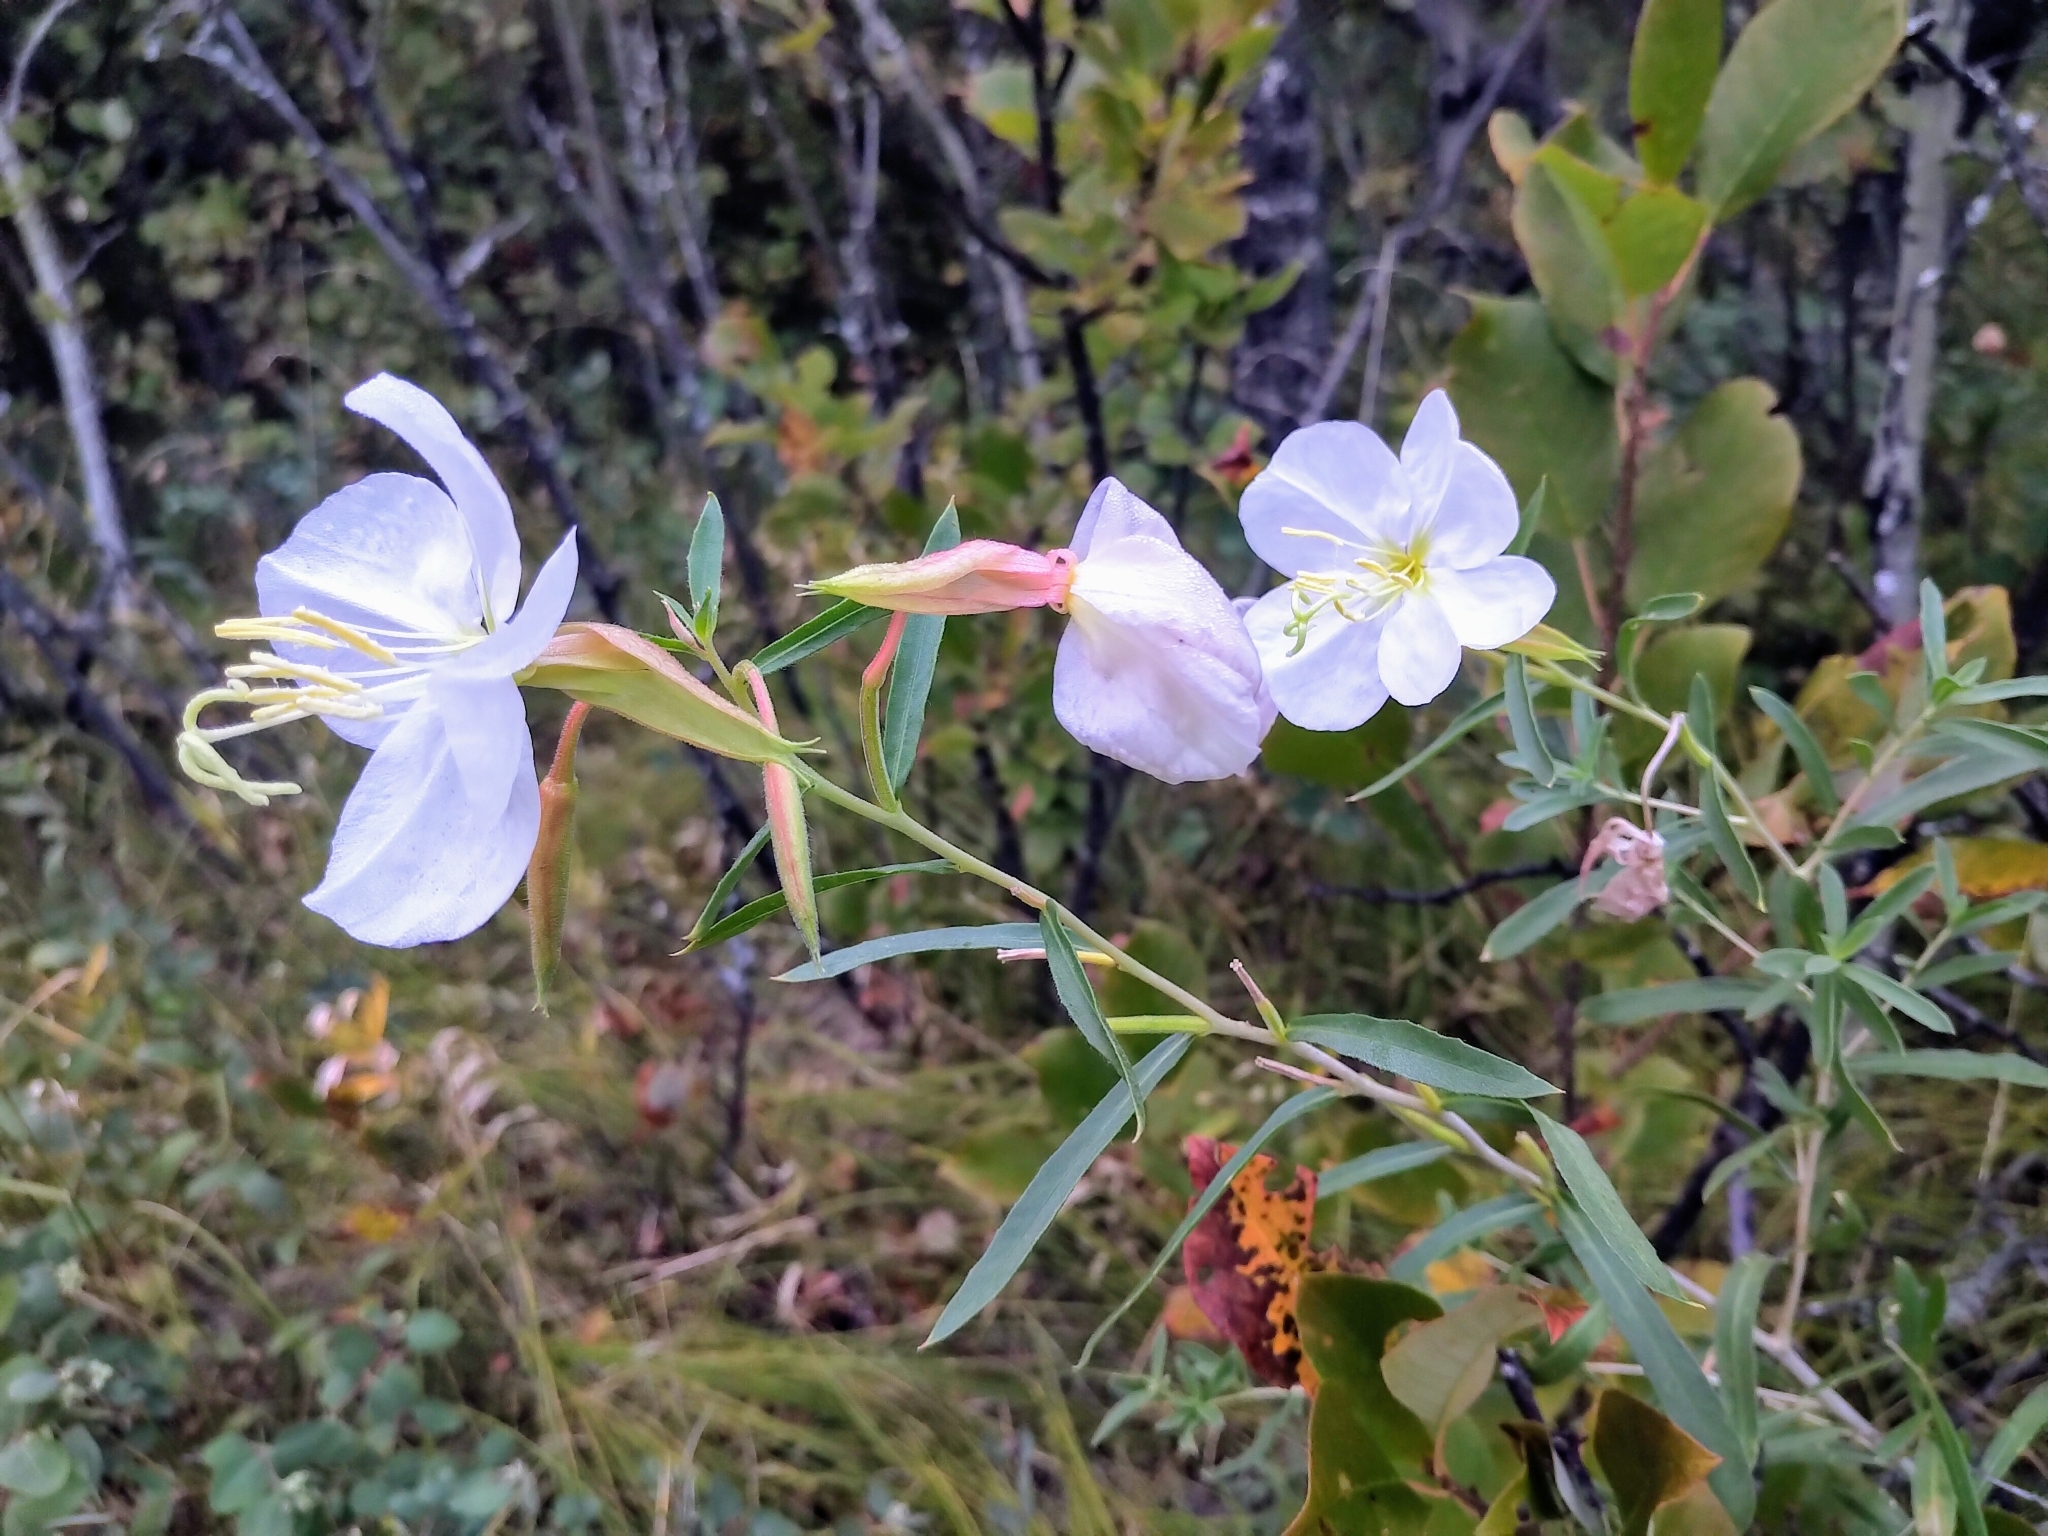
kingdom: Plantae
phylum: Tracheophyta
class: Magnoliopsida
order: Myrtales
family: Onagraceae
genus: Oenothera
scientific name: Oenothera nuttallii
